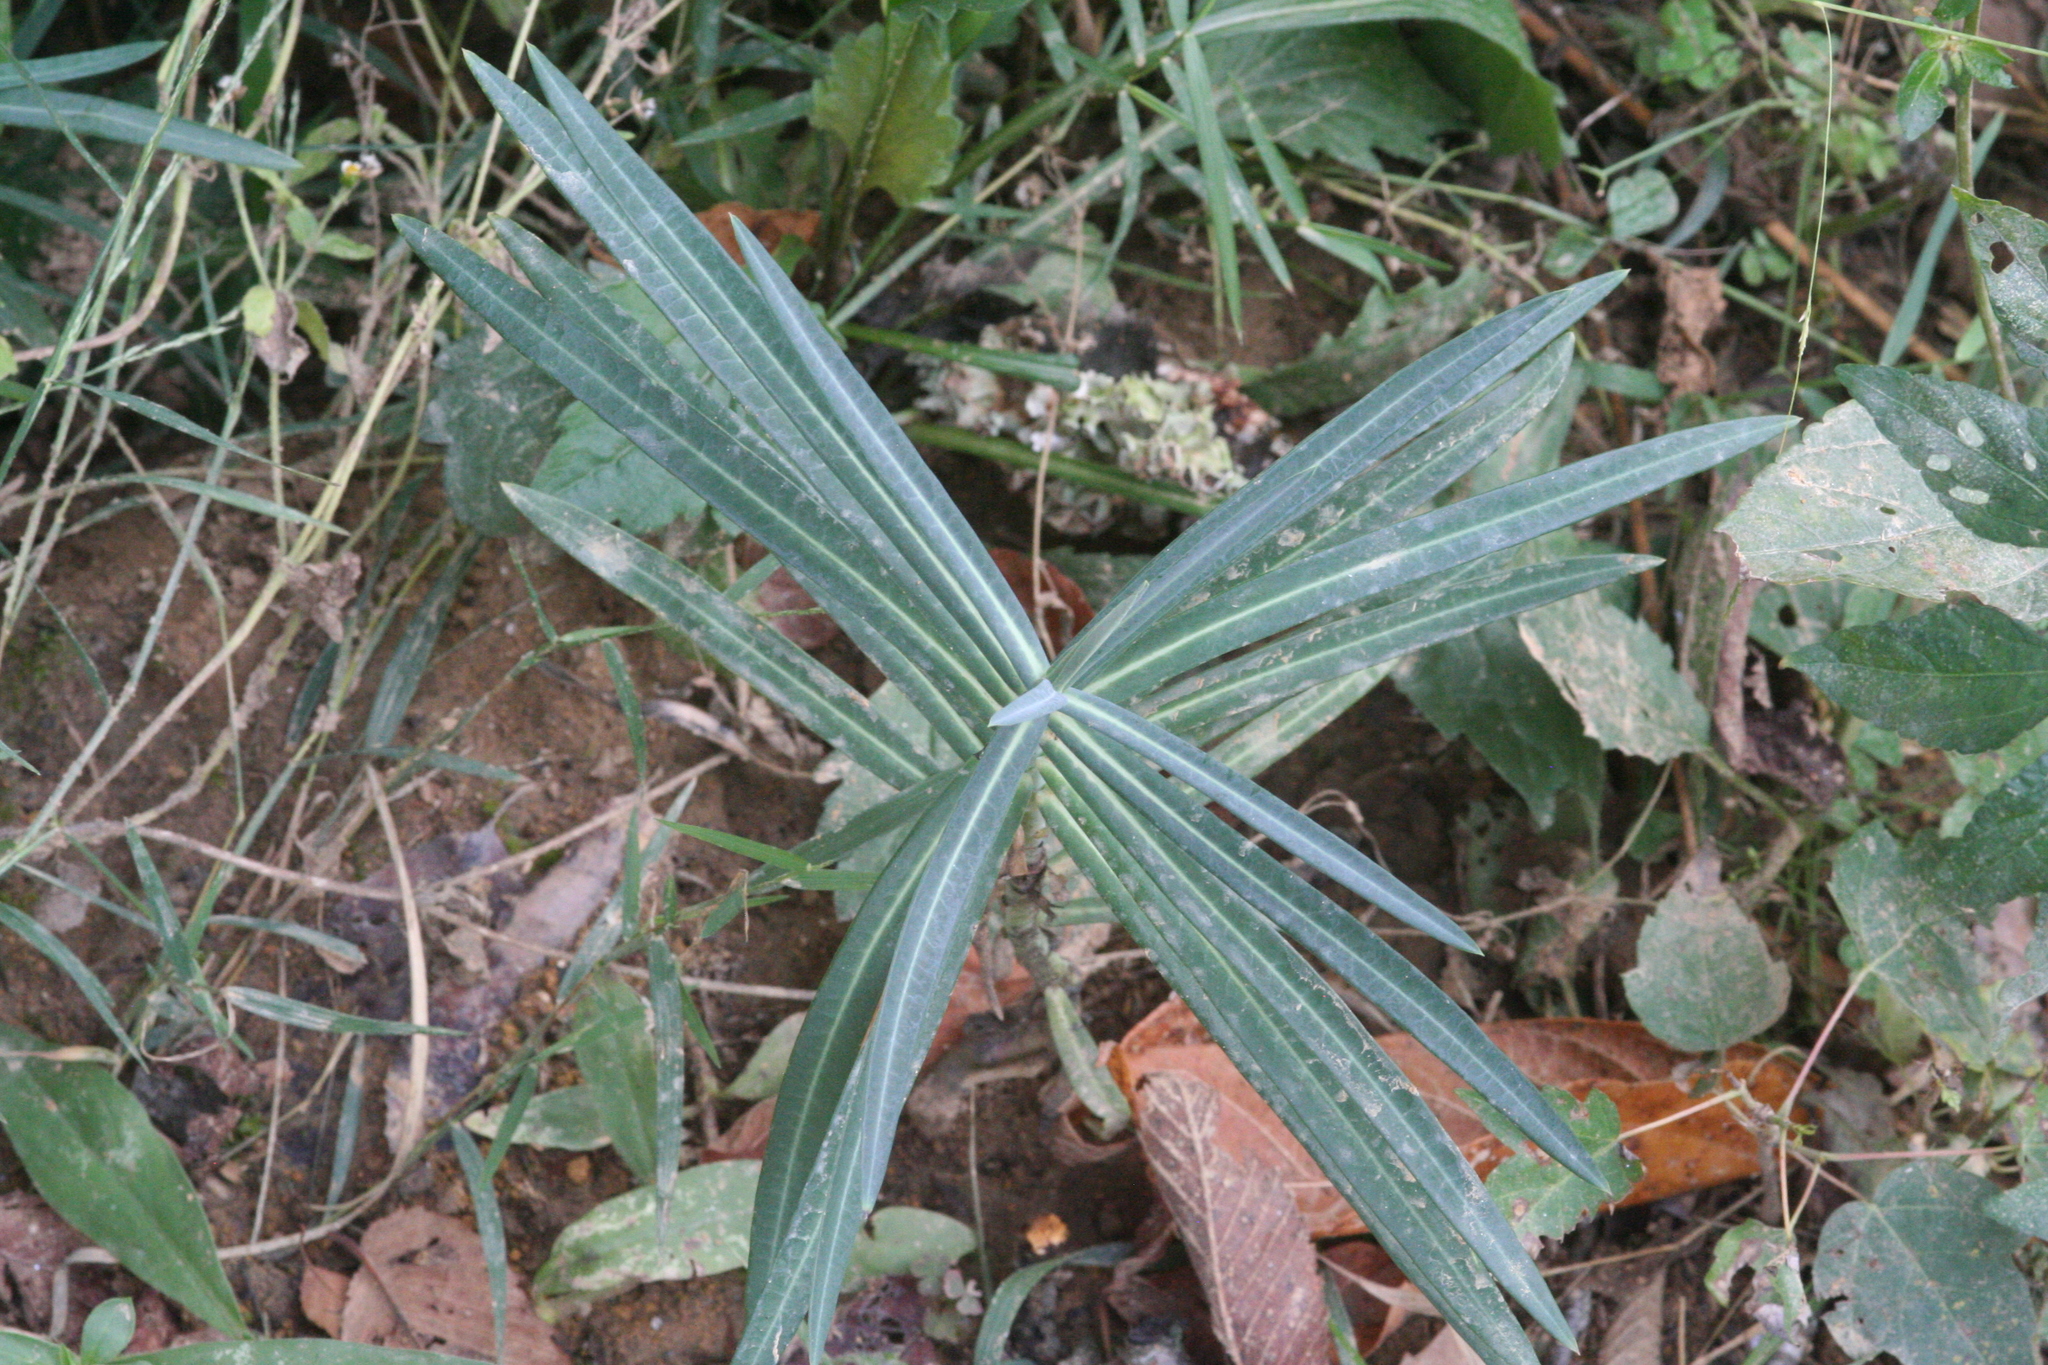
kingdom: Plantae
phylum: Tracheophyta
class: Magnoliopsida
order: Malpighiales
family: Euphorbiaceae
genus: Euphorbia
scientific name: Euphorbia lathyris
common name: Caper spurge
